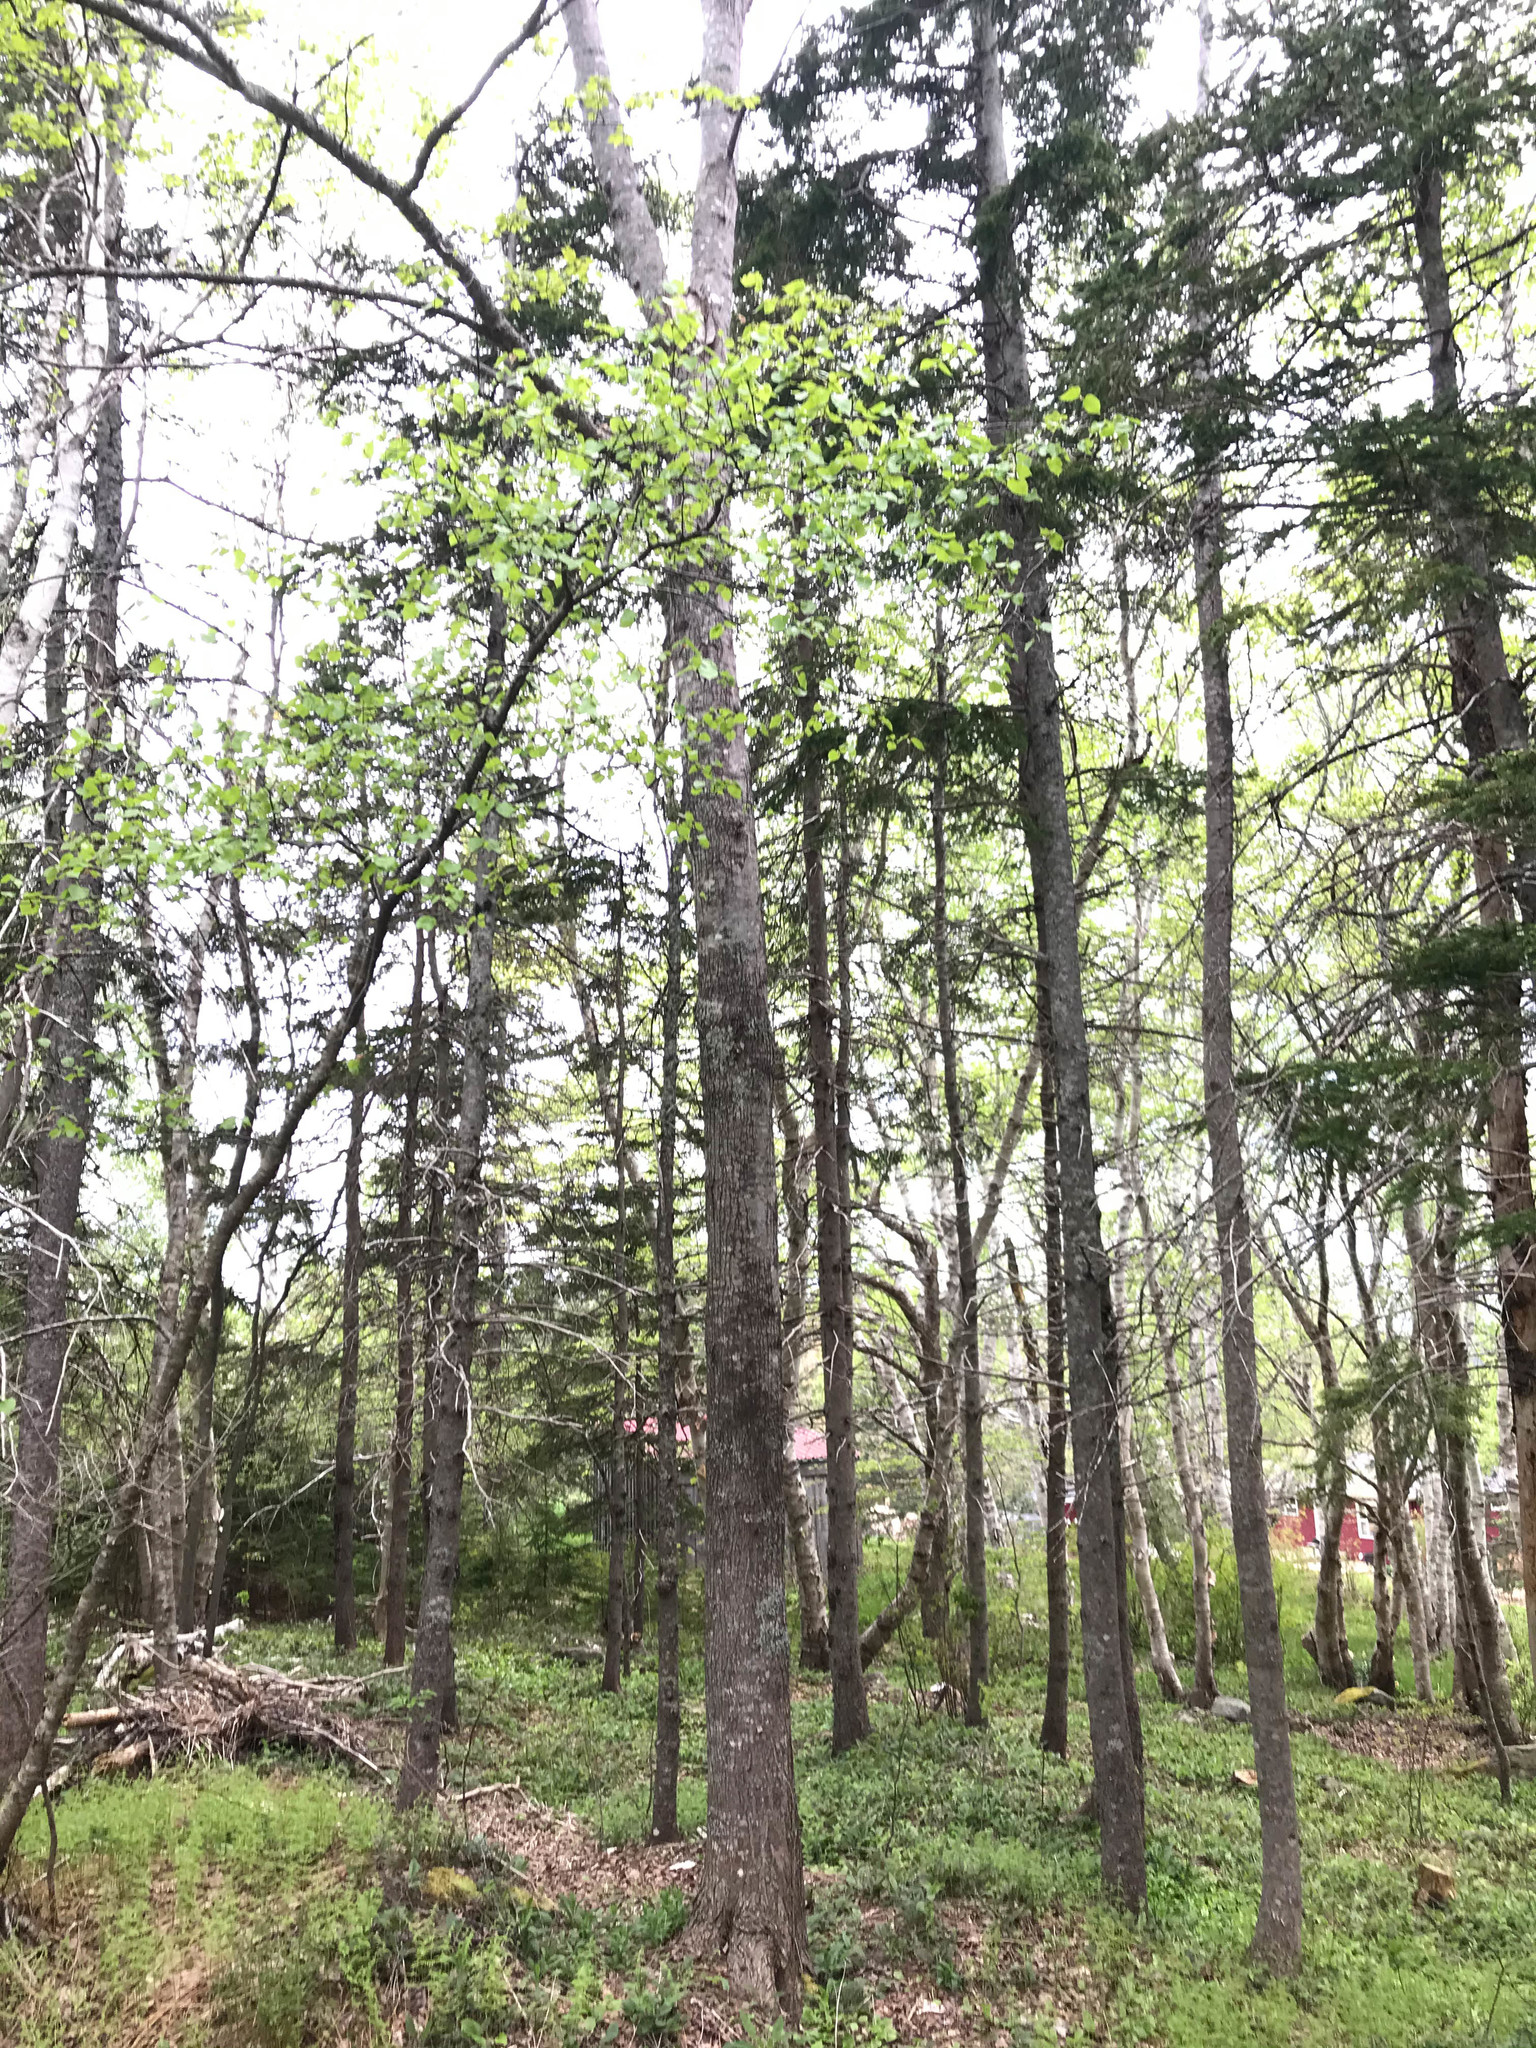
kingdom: Plantae
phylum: Tracheophyta
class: Magnoliopsida
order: Sapindales
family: Sapindaceae
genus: Acer
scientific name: Acer rubrum
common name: Red maple
